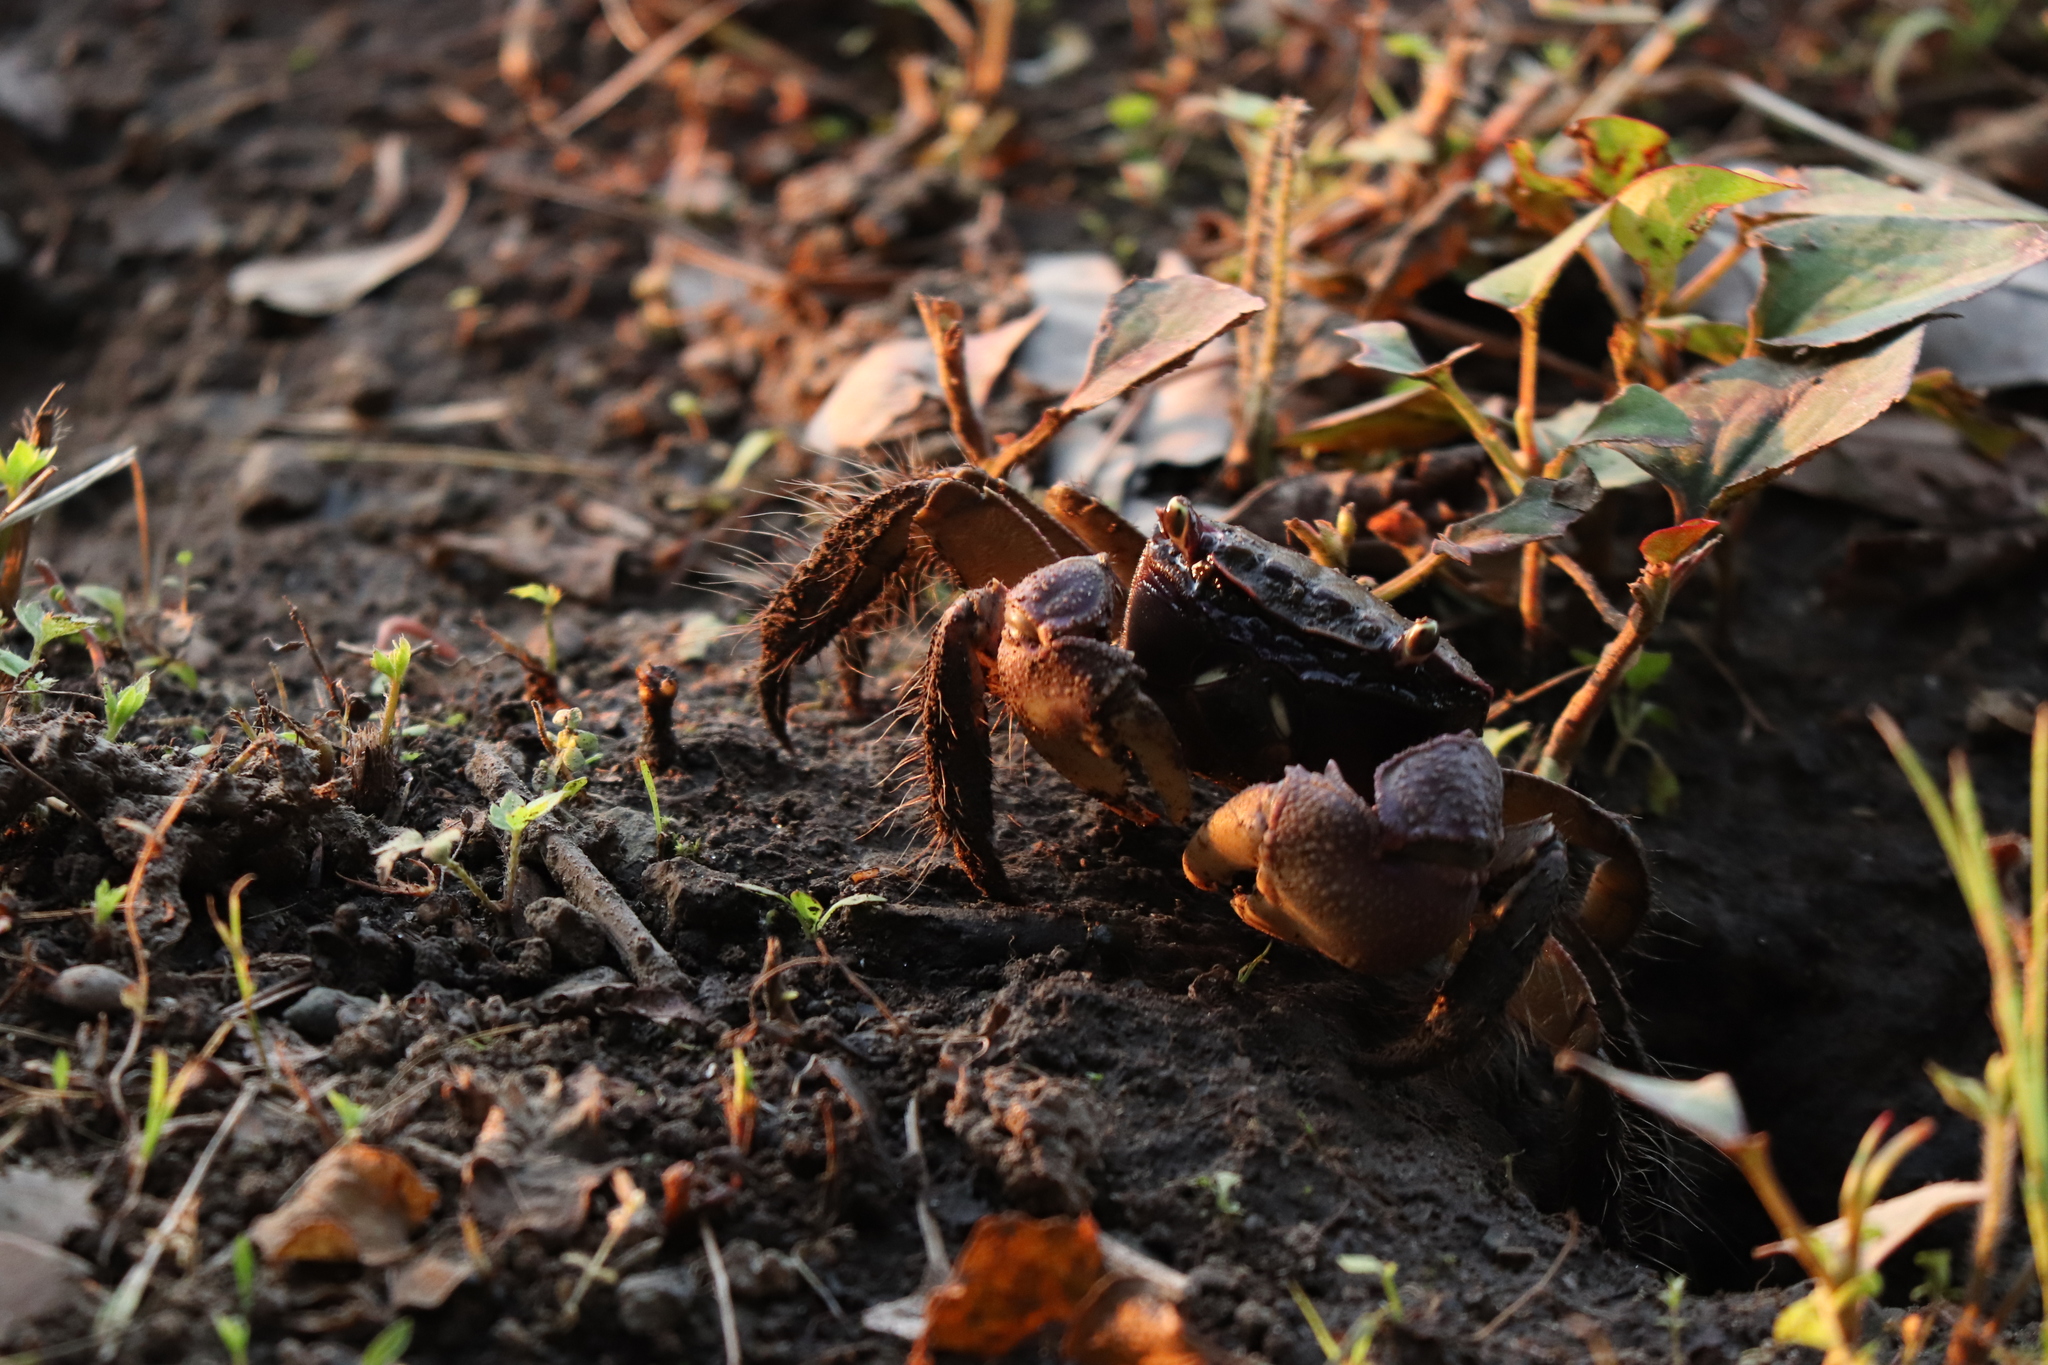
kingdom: Animalia
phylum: Arthropoda
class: Malacostraca
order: Decapoda
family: Sesarmidae
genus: Orisarma
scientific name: Orisarma dehaani
